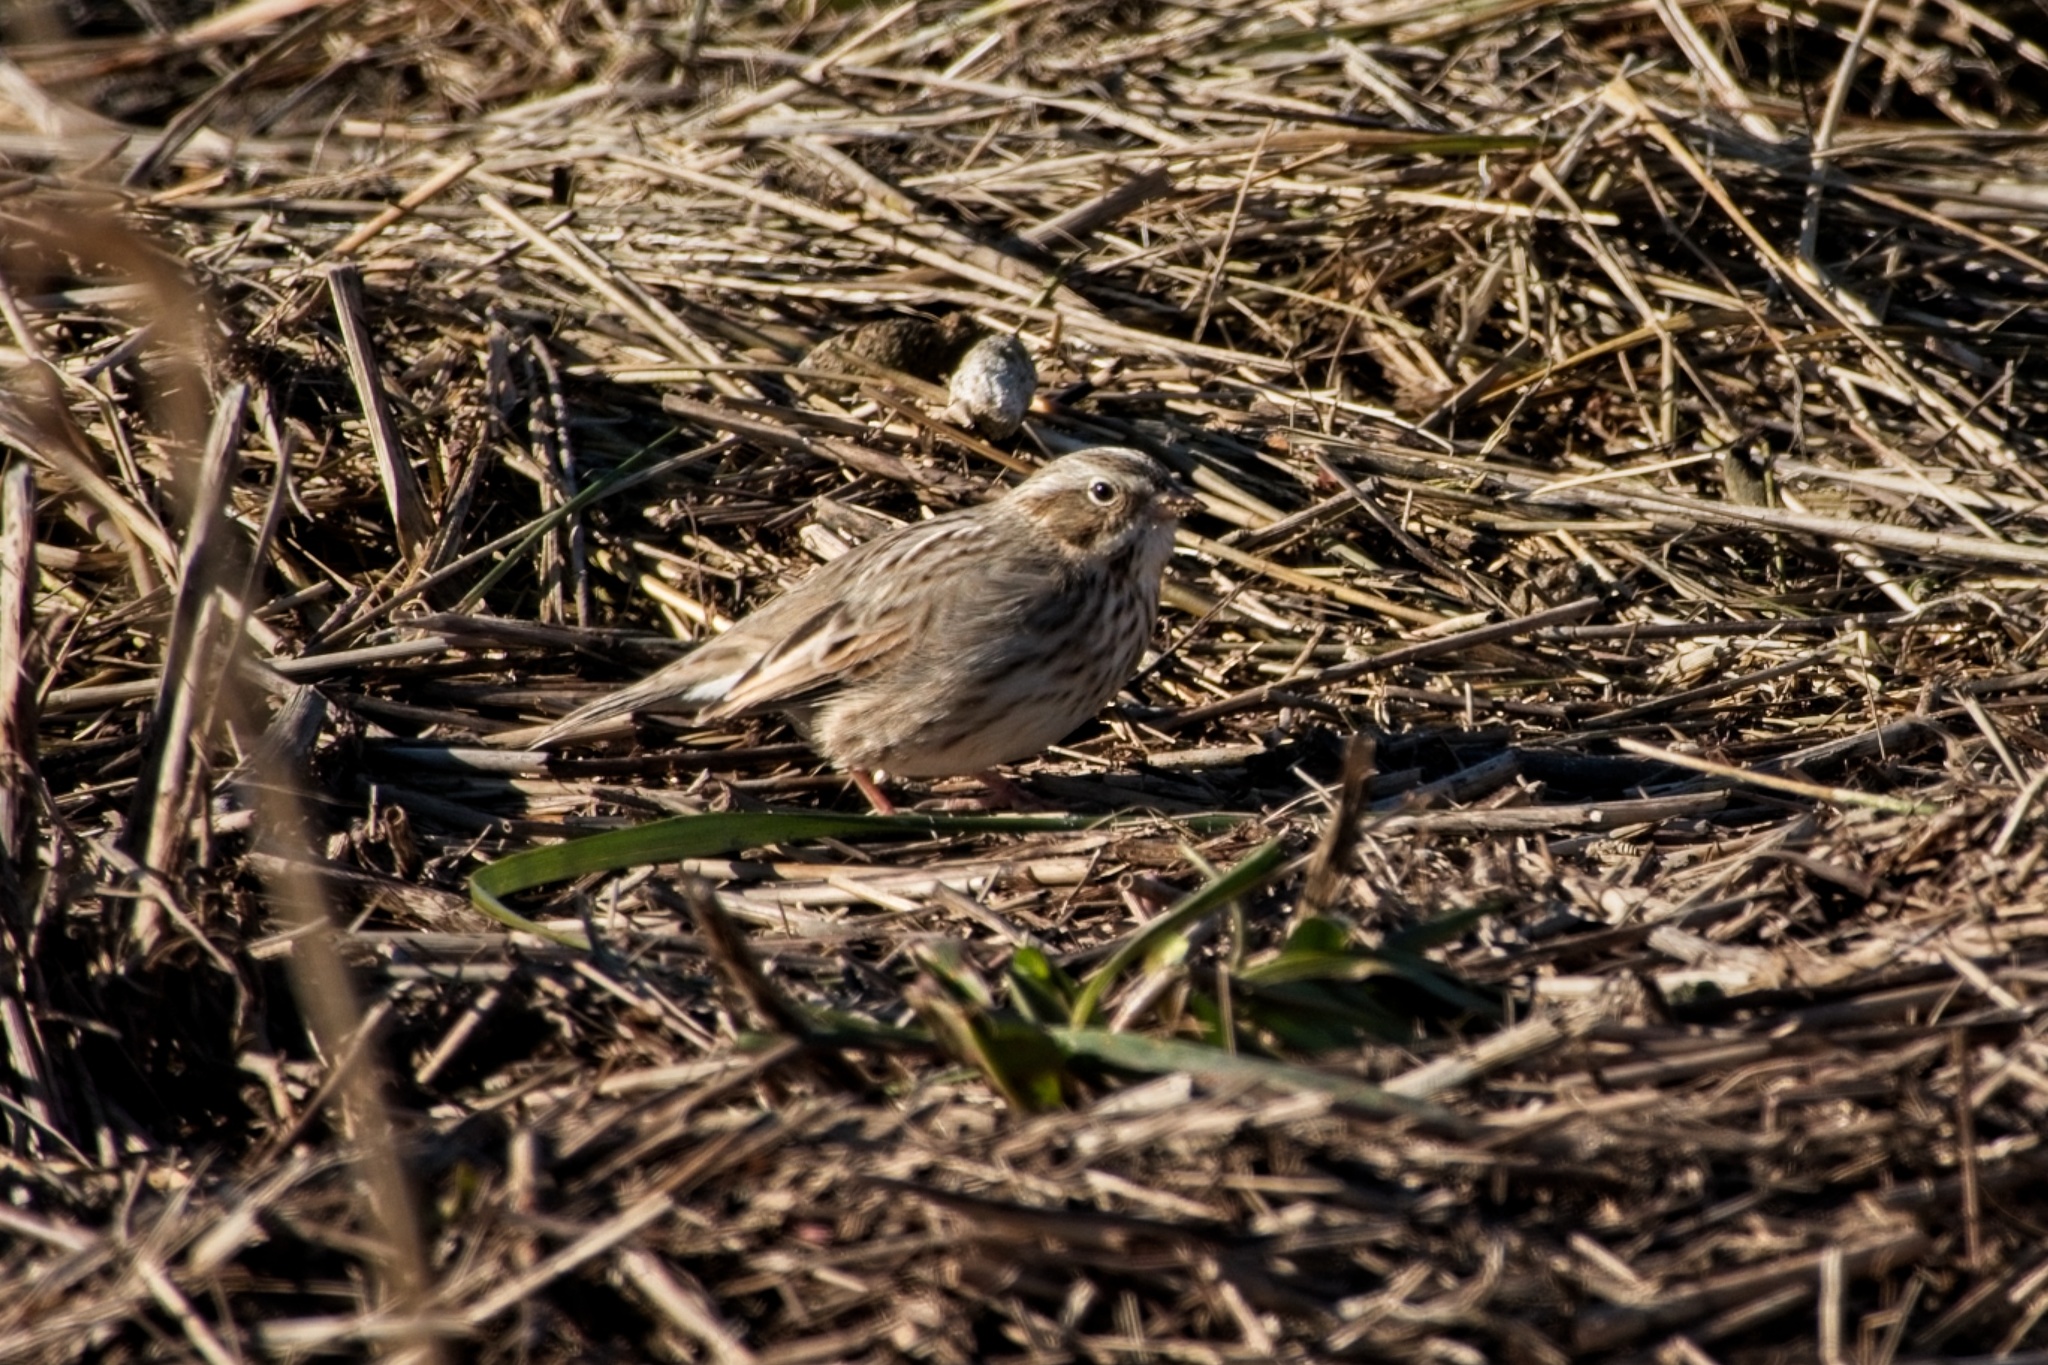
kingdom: Animalia
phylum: Chordata
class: Aves
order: Passeriformes
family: Passerellidae
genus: Pooecetes
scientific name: Pooecetes gramineus
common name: Vesper sparrow
